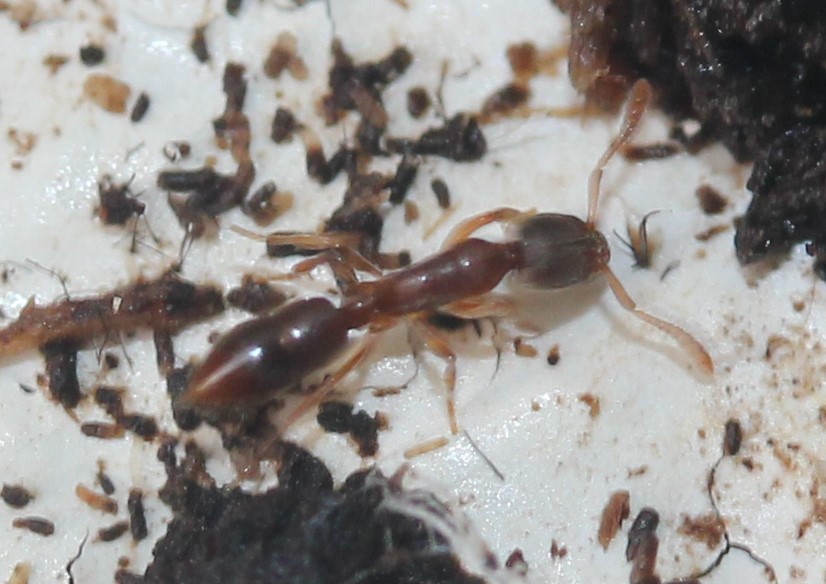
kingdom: Animalia
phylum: Arthropoda
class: Insecta
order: Hymenoptera
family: Formicidae
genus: Ponera
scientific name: Ponera pennsylvanica
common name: Pennsylvania ponera
